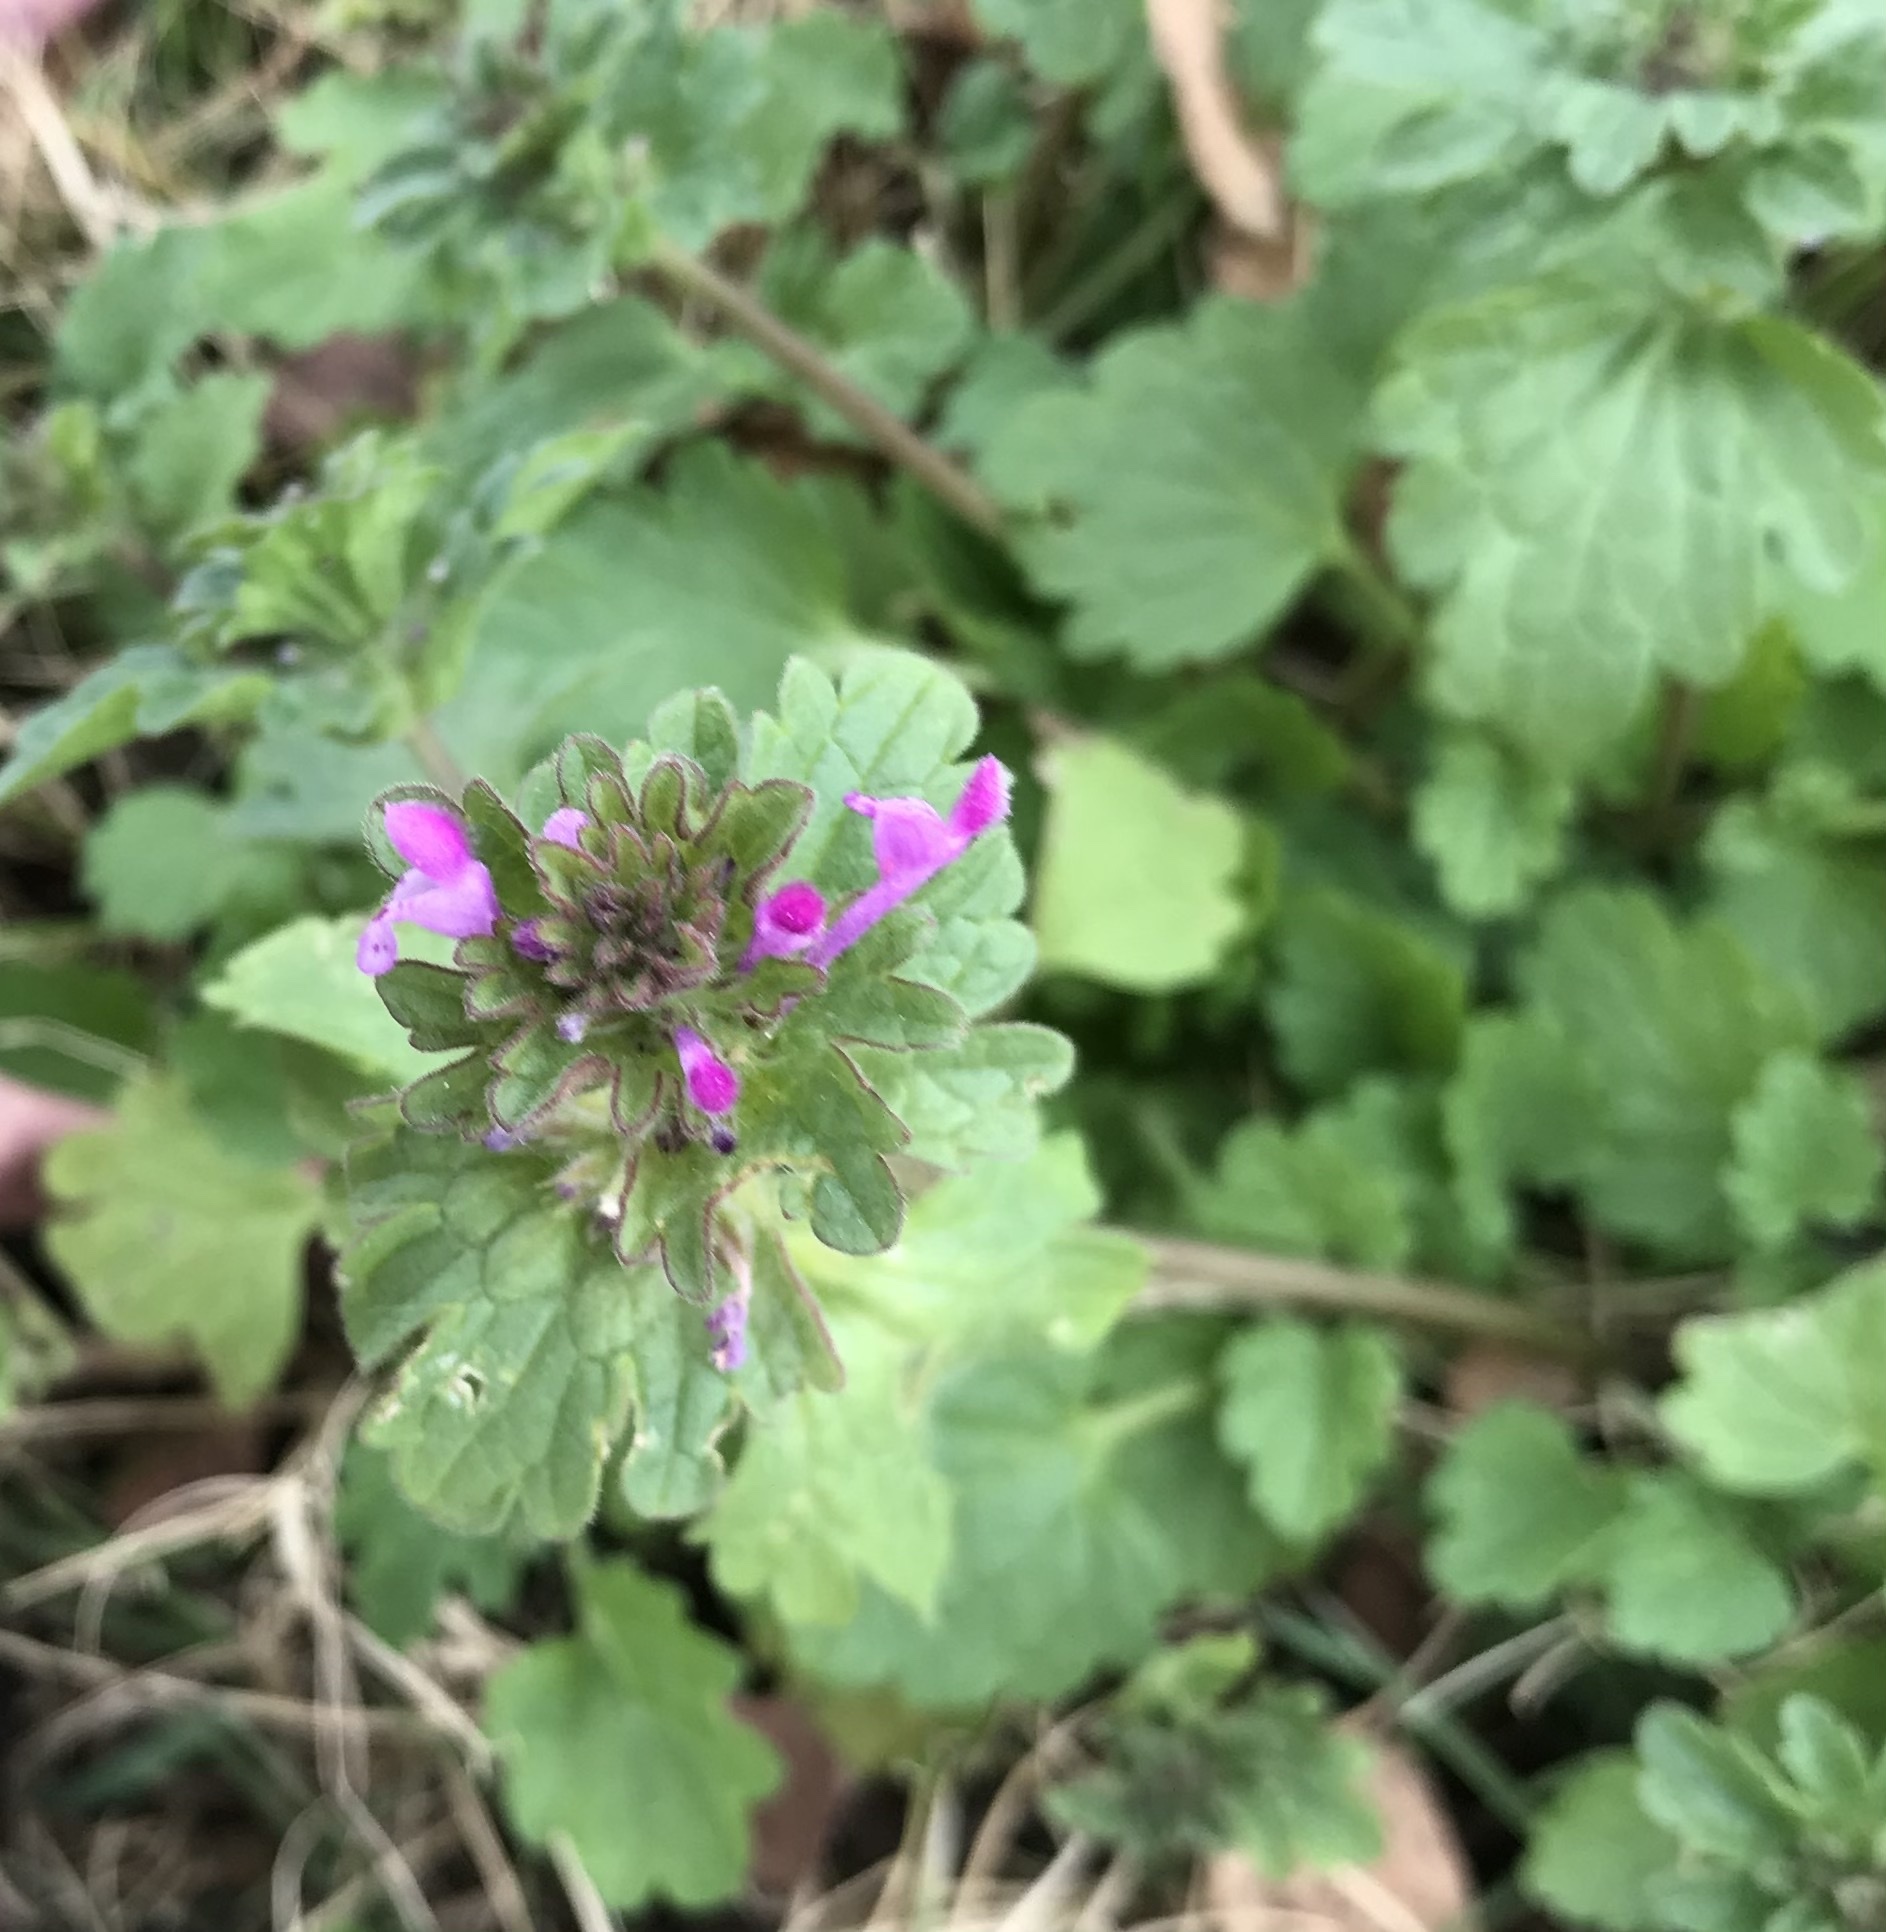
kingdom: Plantae
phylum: Tracheophyta
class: Magnoliopsida
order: Lamiales
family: Lamiaceae
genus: Lamium
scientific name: Lamium amplexicaule
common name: Henbit dead-nettle
